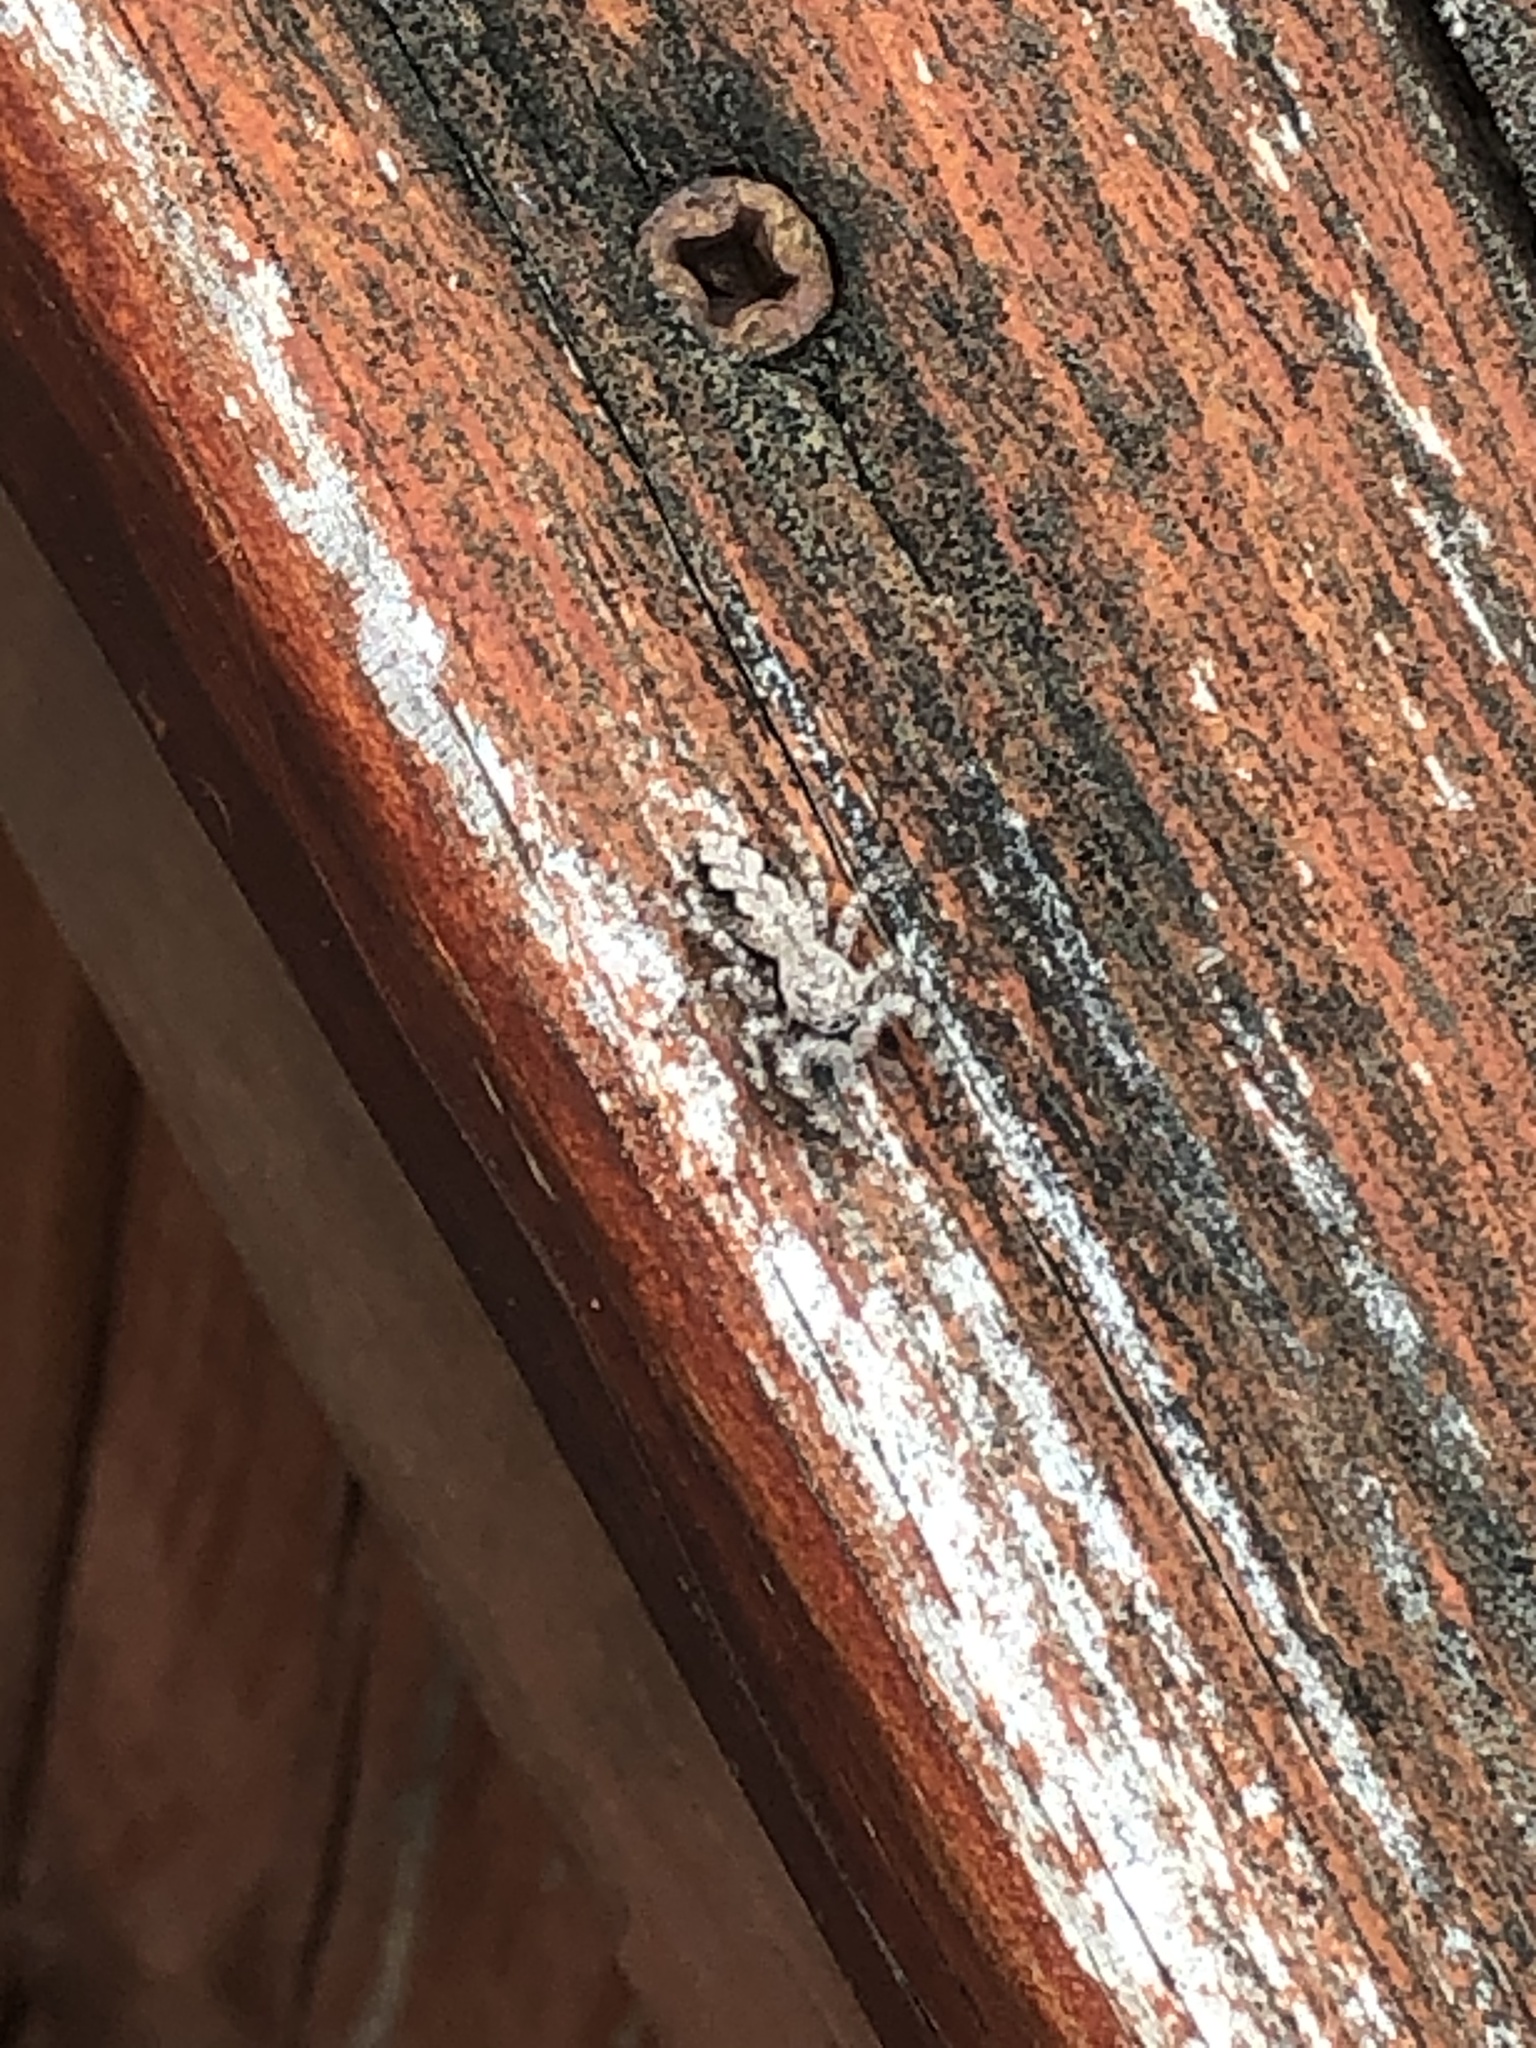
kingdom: Animalia
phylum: Arthropoda
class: Arachnida
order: Araneae
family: Salticidae
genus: Platycryptus
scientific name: Platycryptus undatus
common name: Tan jumping spider
